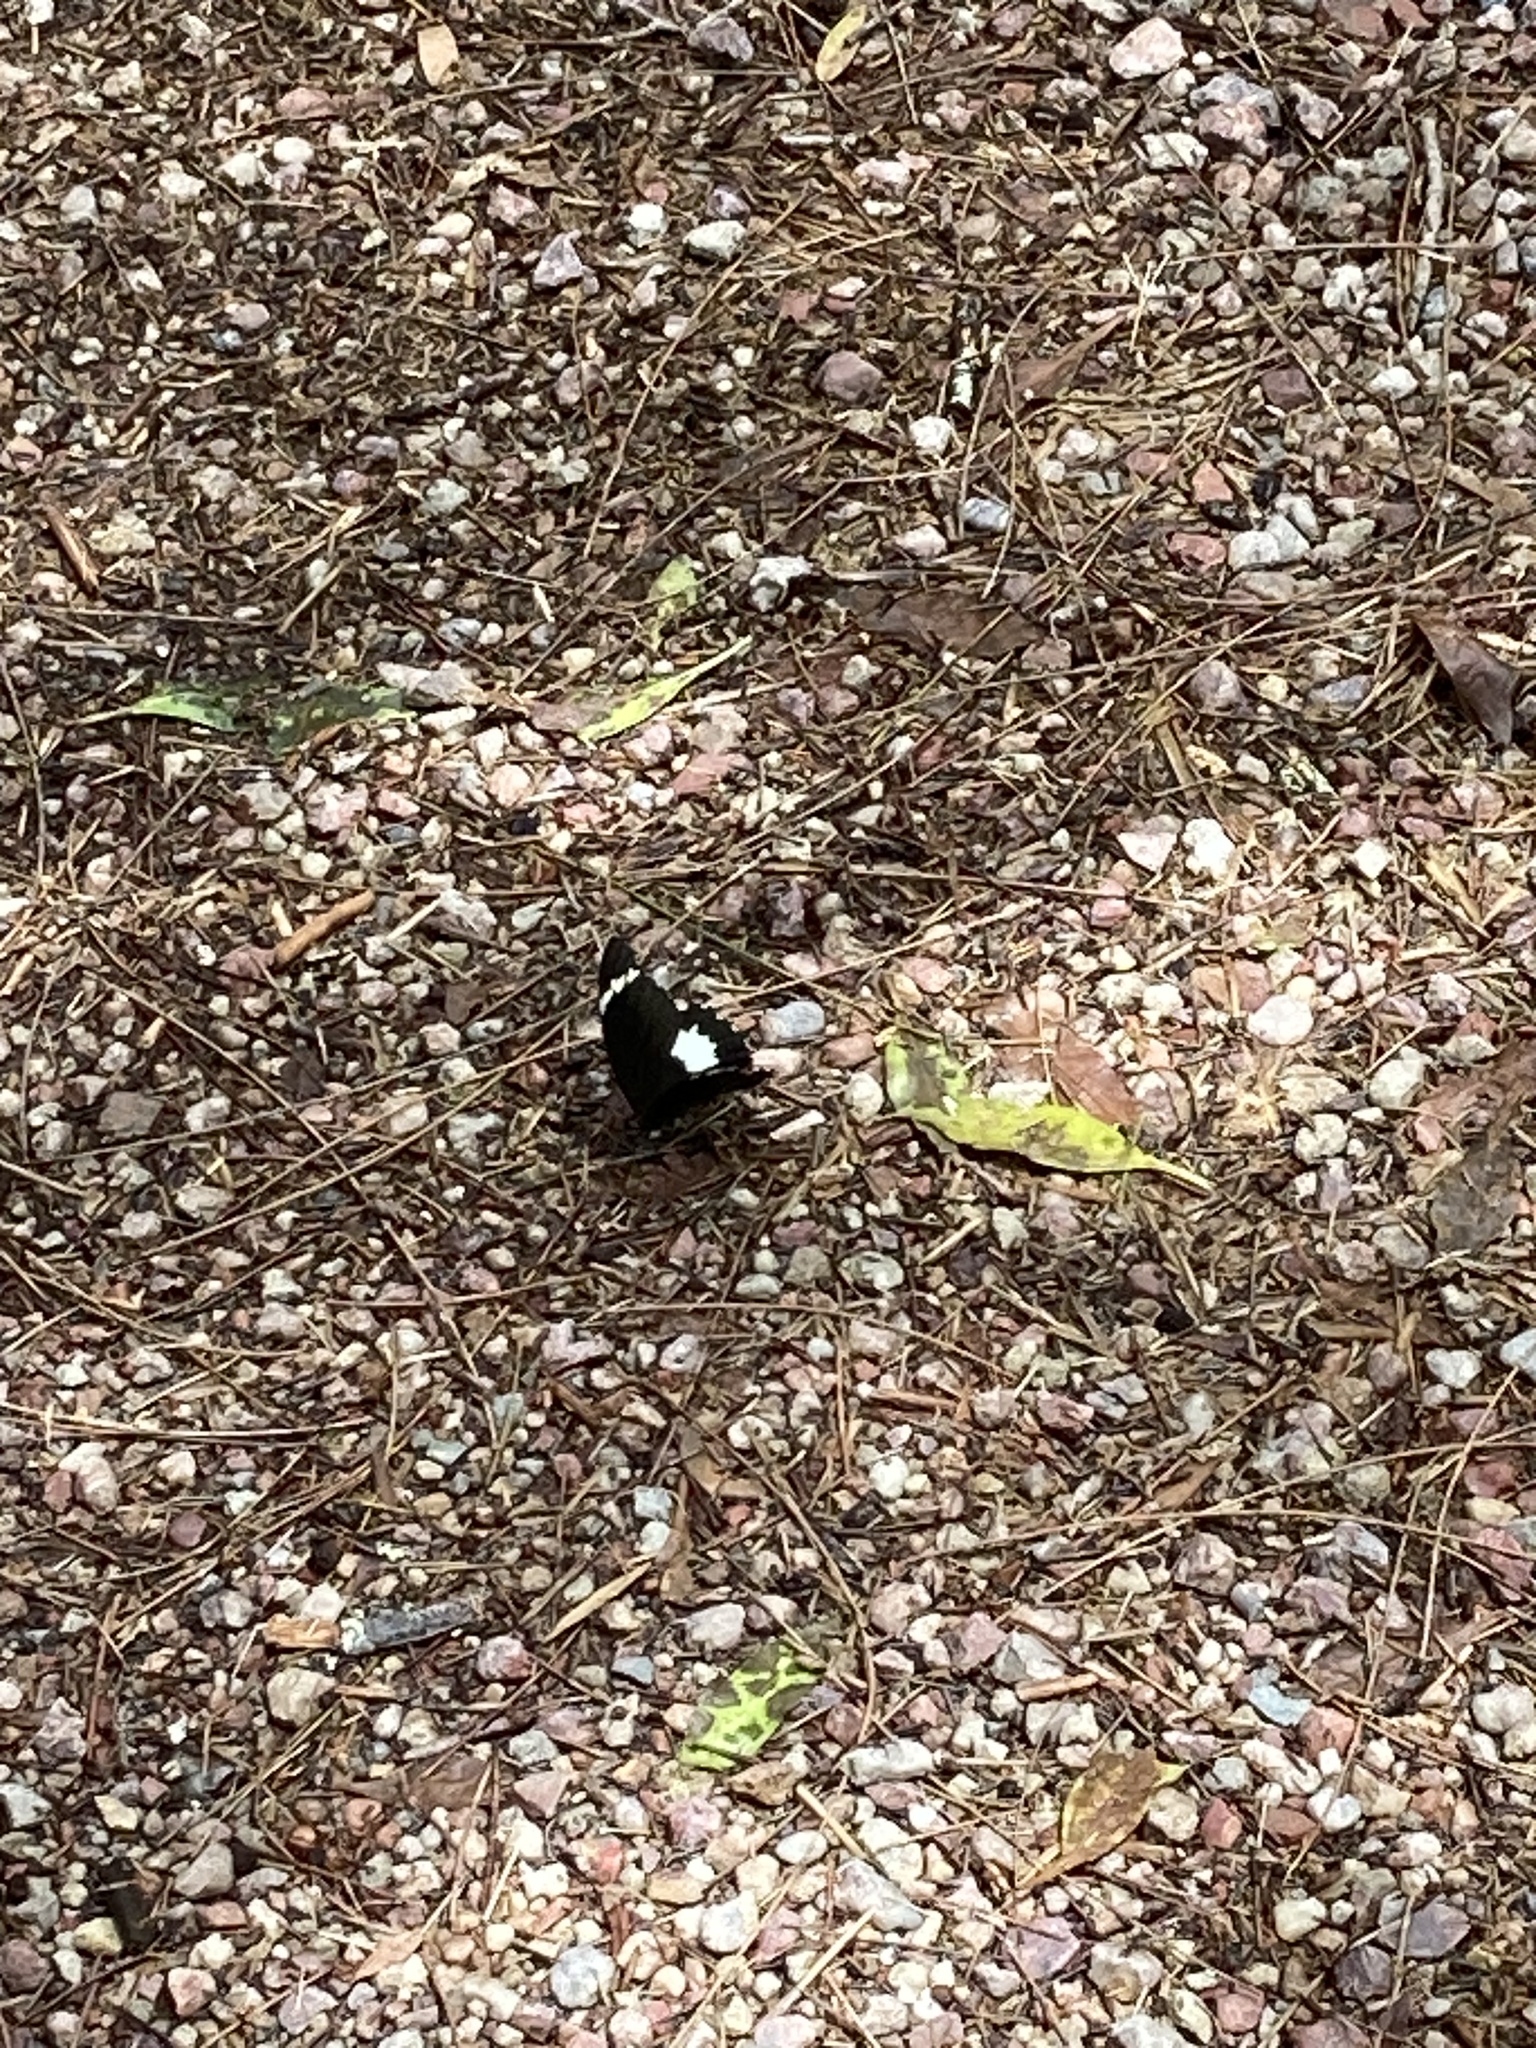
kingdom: Animalia
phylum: Arthropoda
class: Insecta
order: Lepidoptera
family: Papilionidae
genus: Papilio
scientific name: Papilio aegeus
